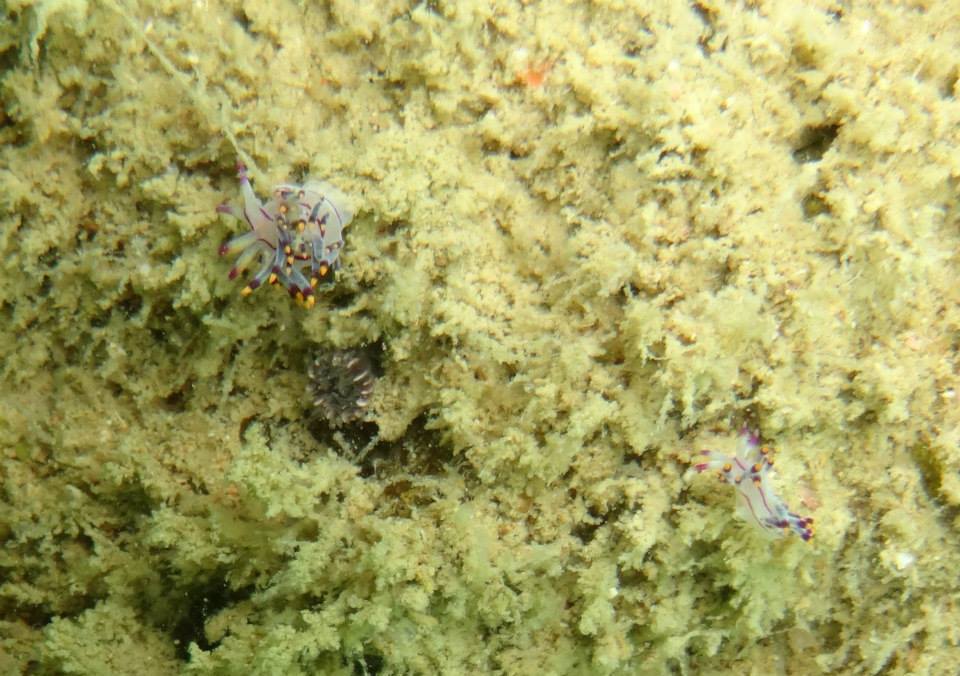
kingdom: Animalia
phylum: Mollusca
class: Gastropoda
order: Nudibranchia
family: Flabellinidae
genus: Coryphellina
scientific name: Coryphellina rubrolineata
